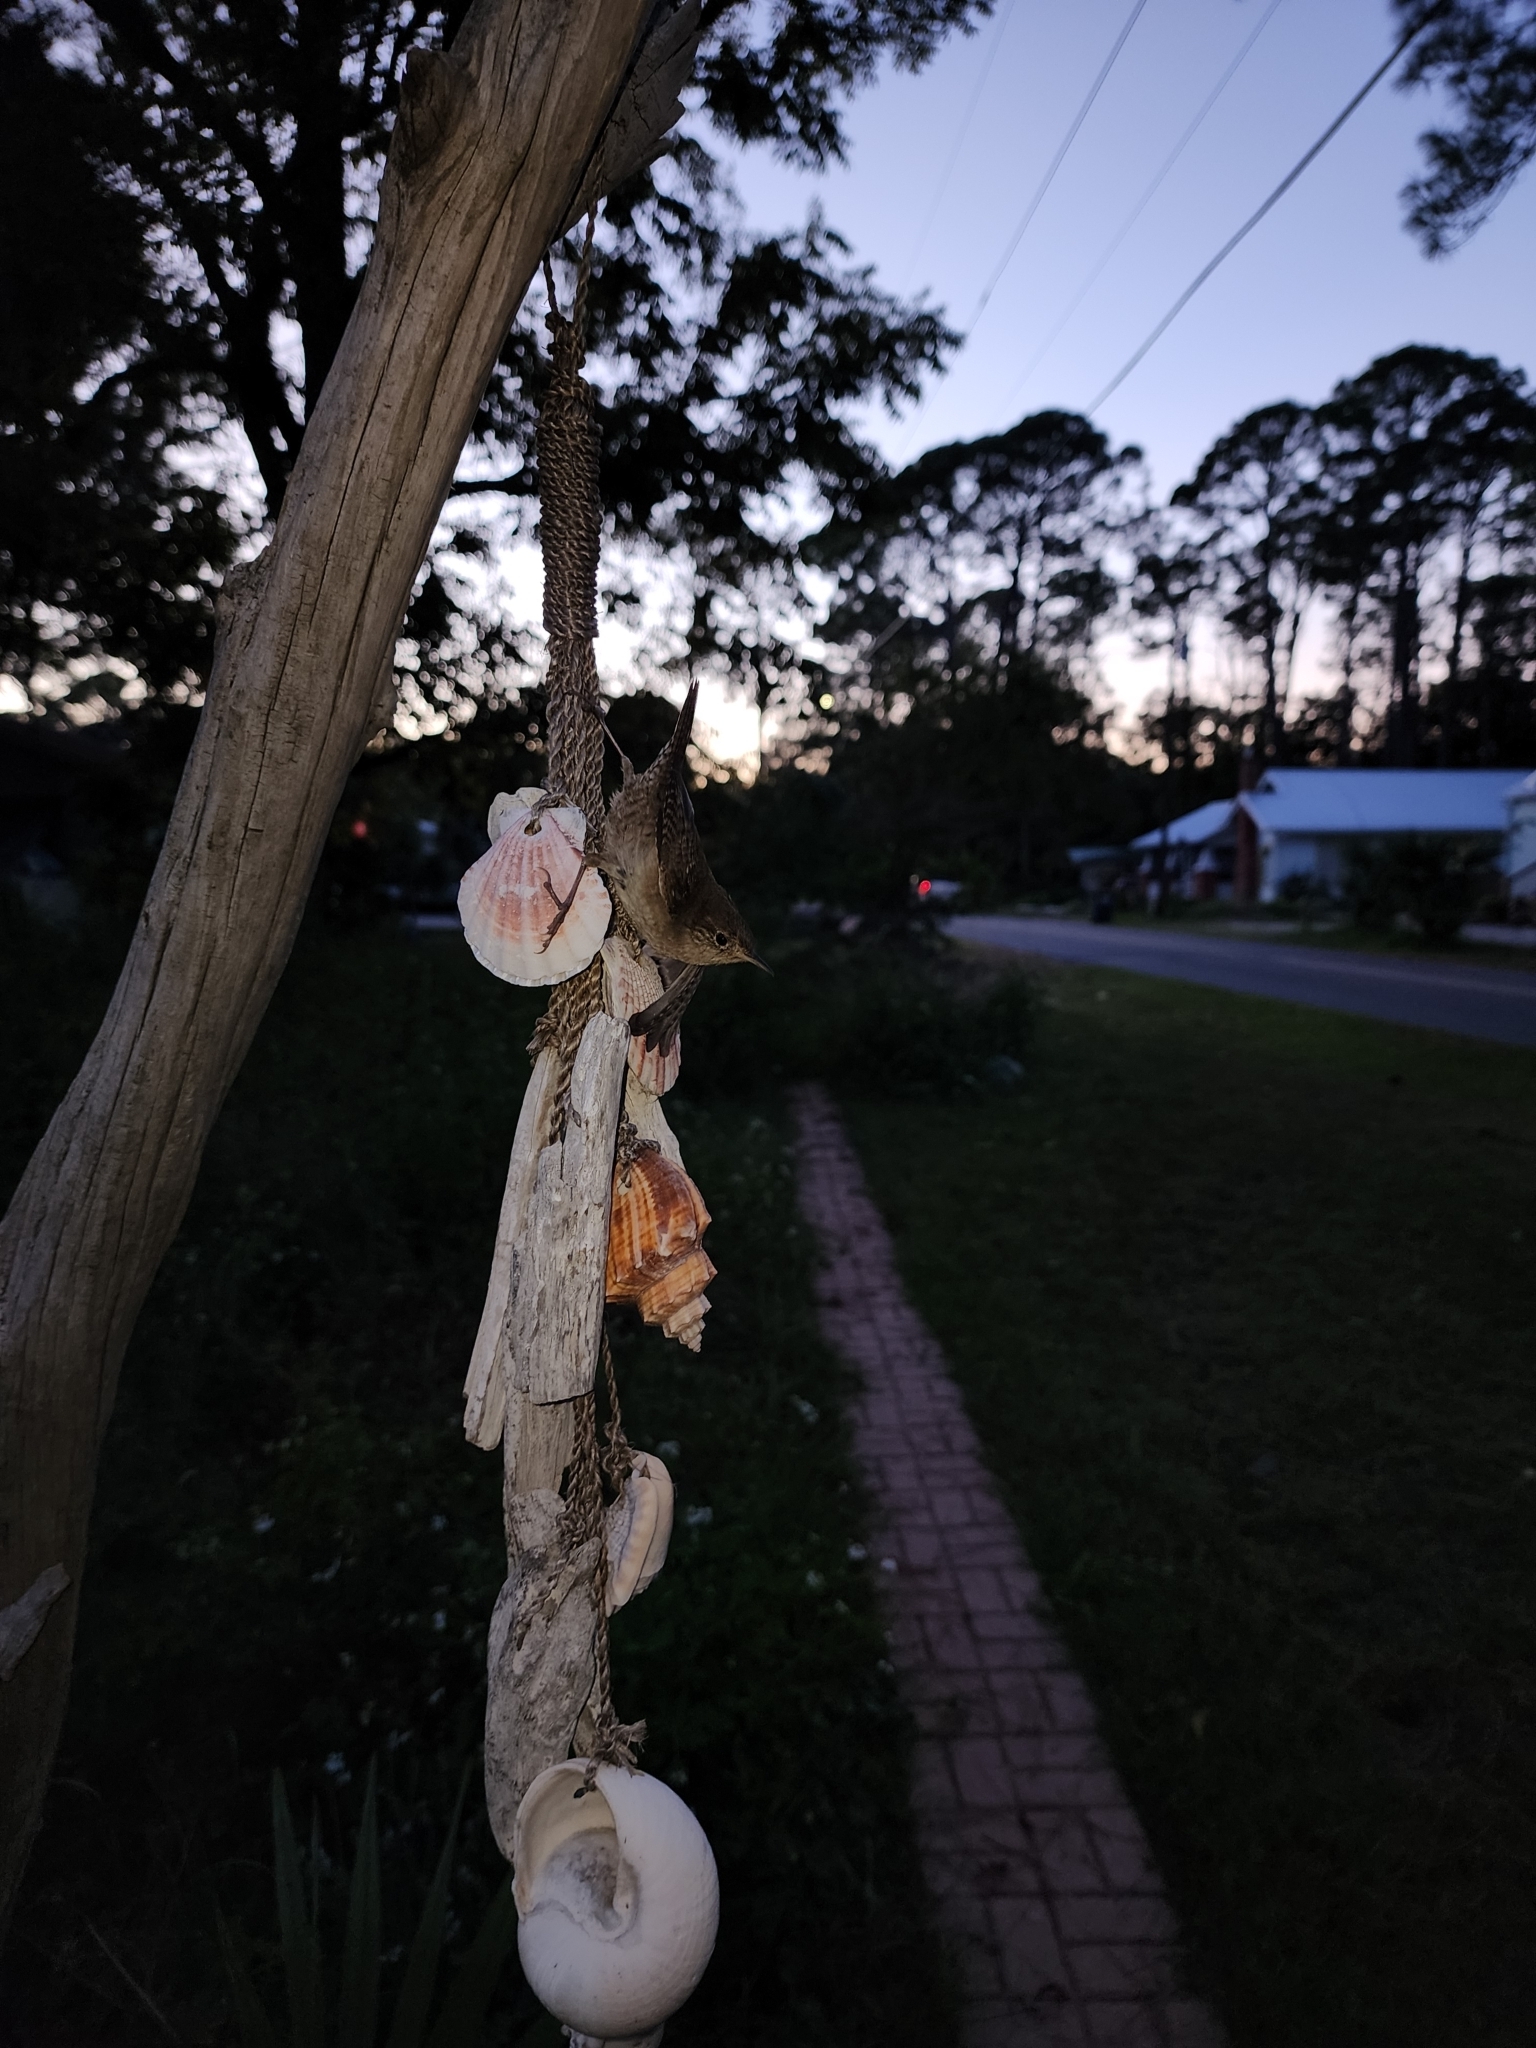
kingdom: Animalia
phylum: Chordata
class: Aves
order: Passeriformes
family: Troglodytidae
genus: Troglodytes
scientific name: Troglodytes aedon
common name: House wren
